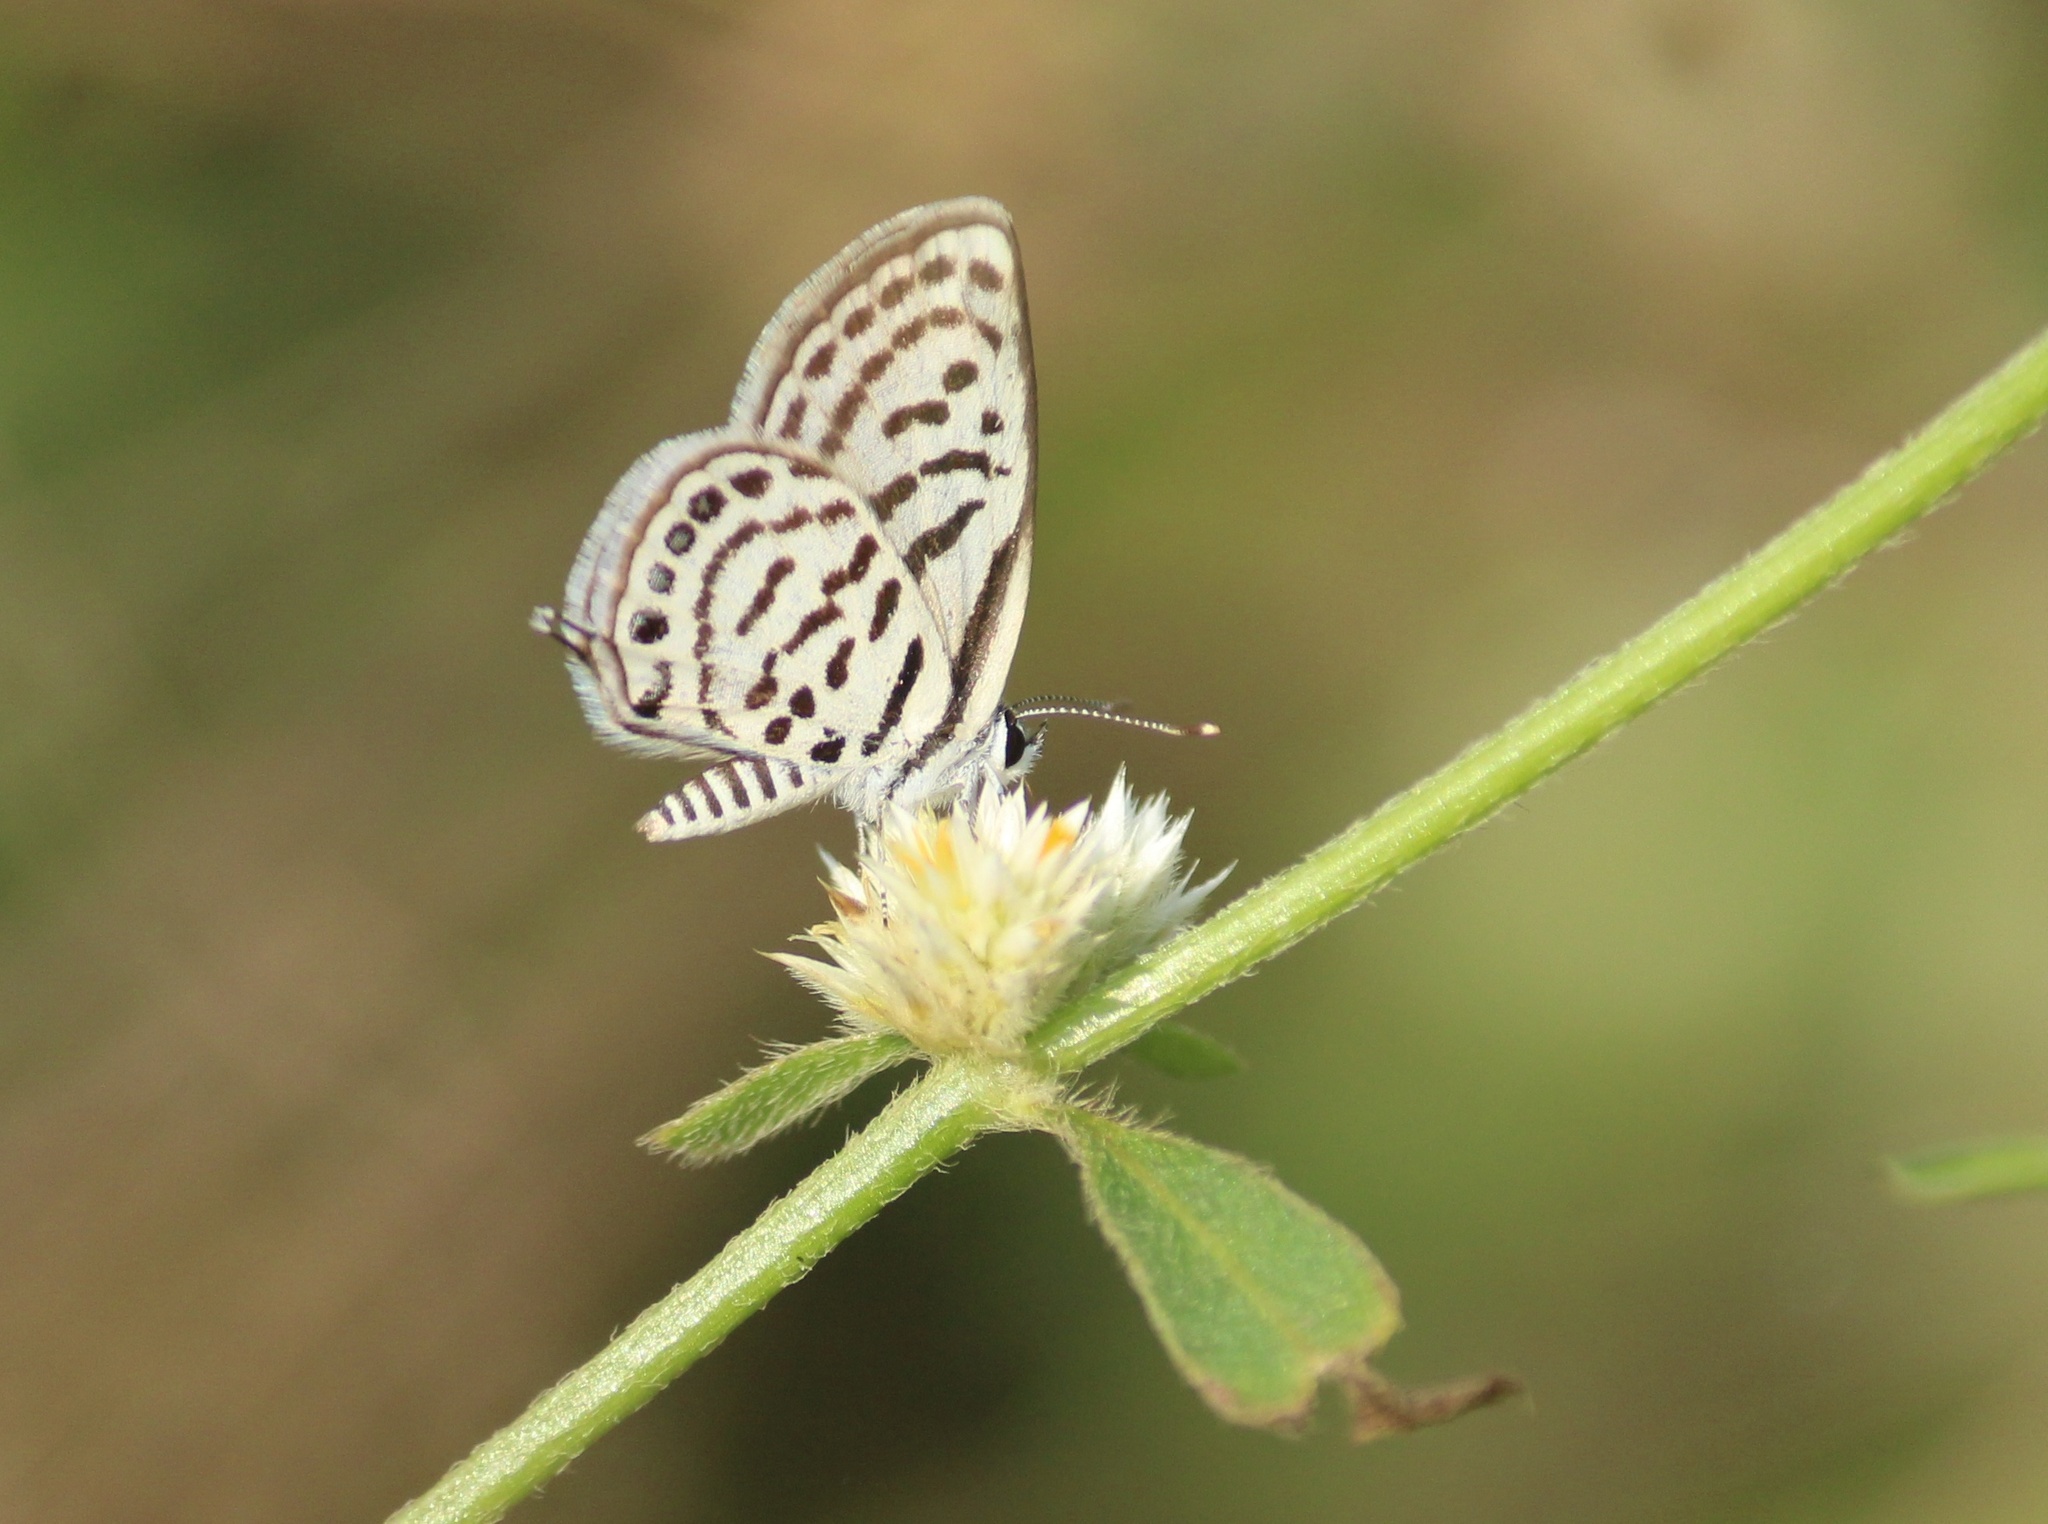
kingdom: Animalia
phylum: Arthropoda
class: Insecta
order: Lepidoptera
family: Lycaenidae
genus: Tarucus
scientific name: Tarucus balkanica
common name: Little tiger blue
